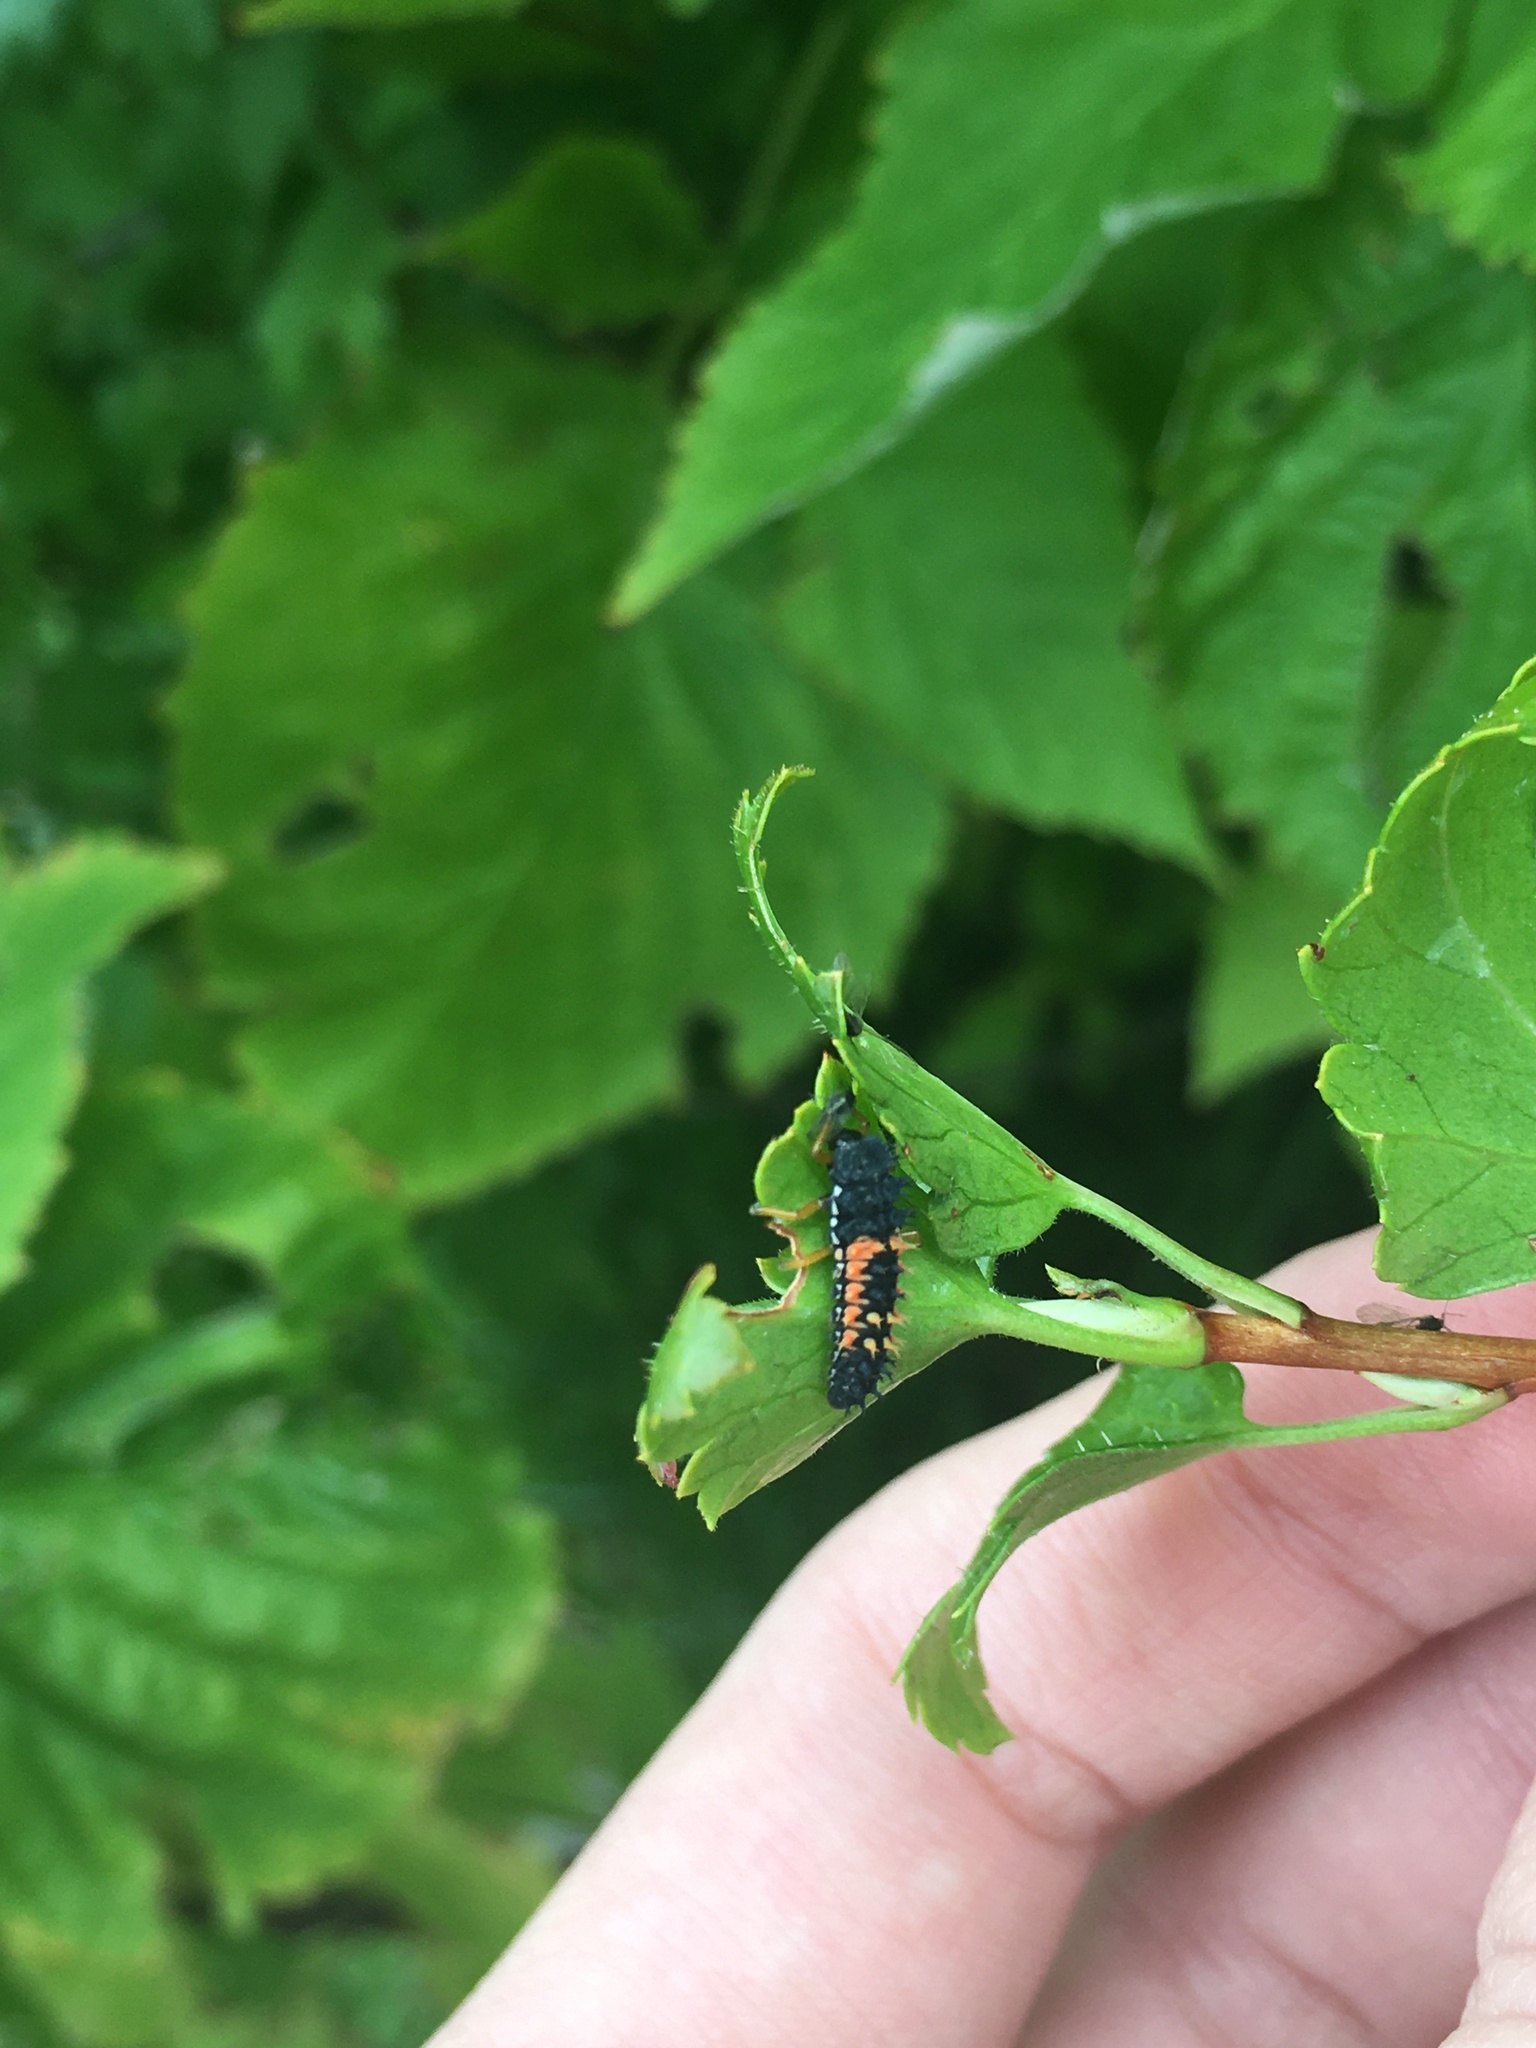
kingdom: Animalia
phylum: Arthropoda
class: Insecta
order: Coleoptera
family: Coccinellidae
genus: Harmonia
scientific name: Harmonia axyridis
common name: Harlequin ladybird
